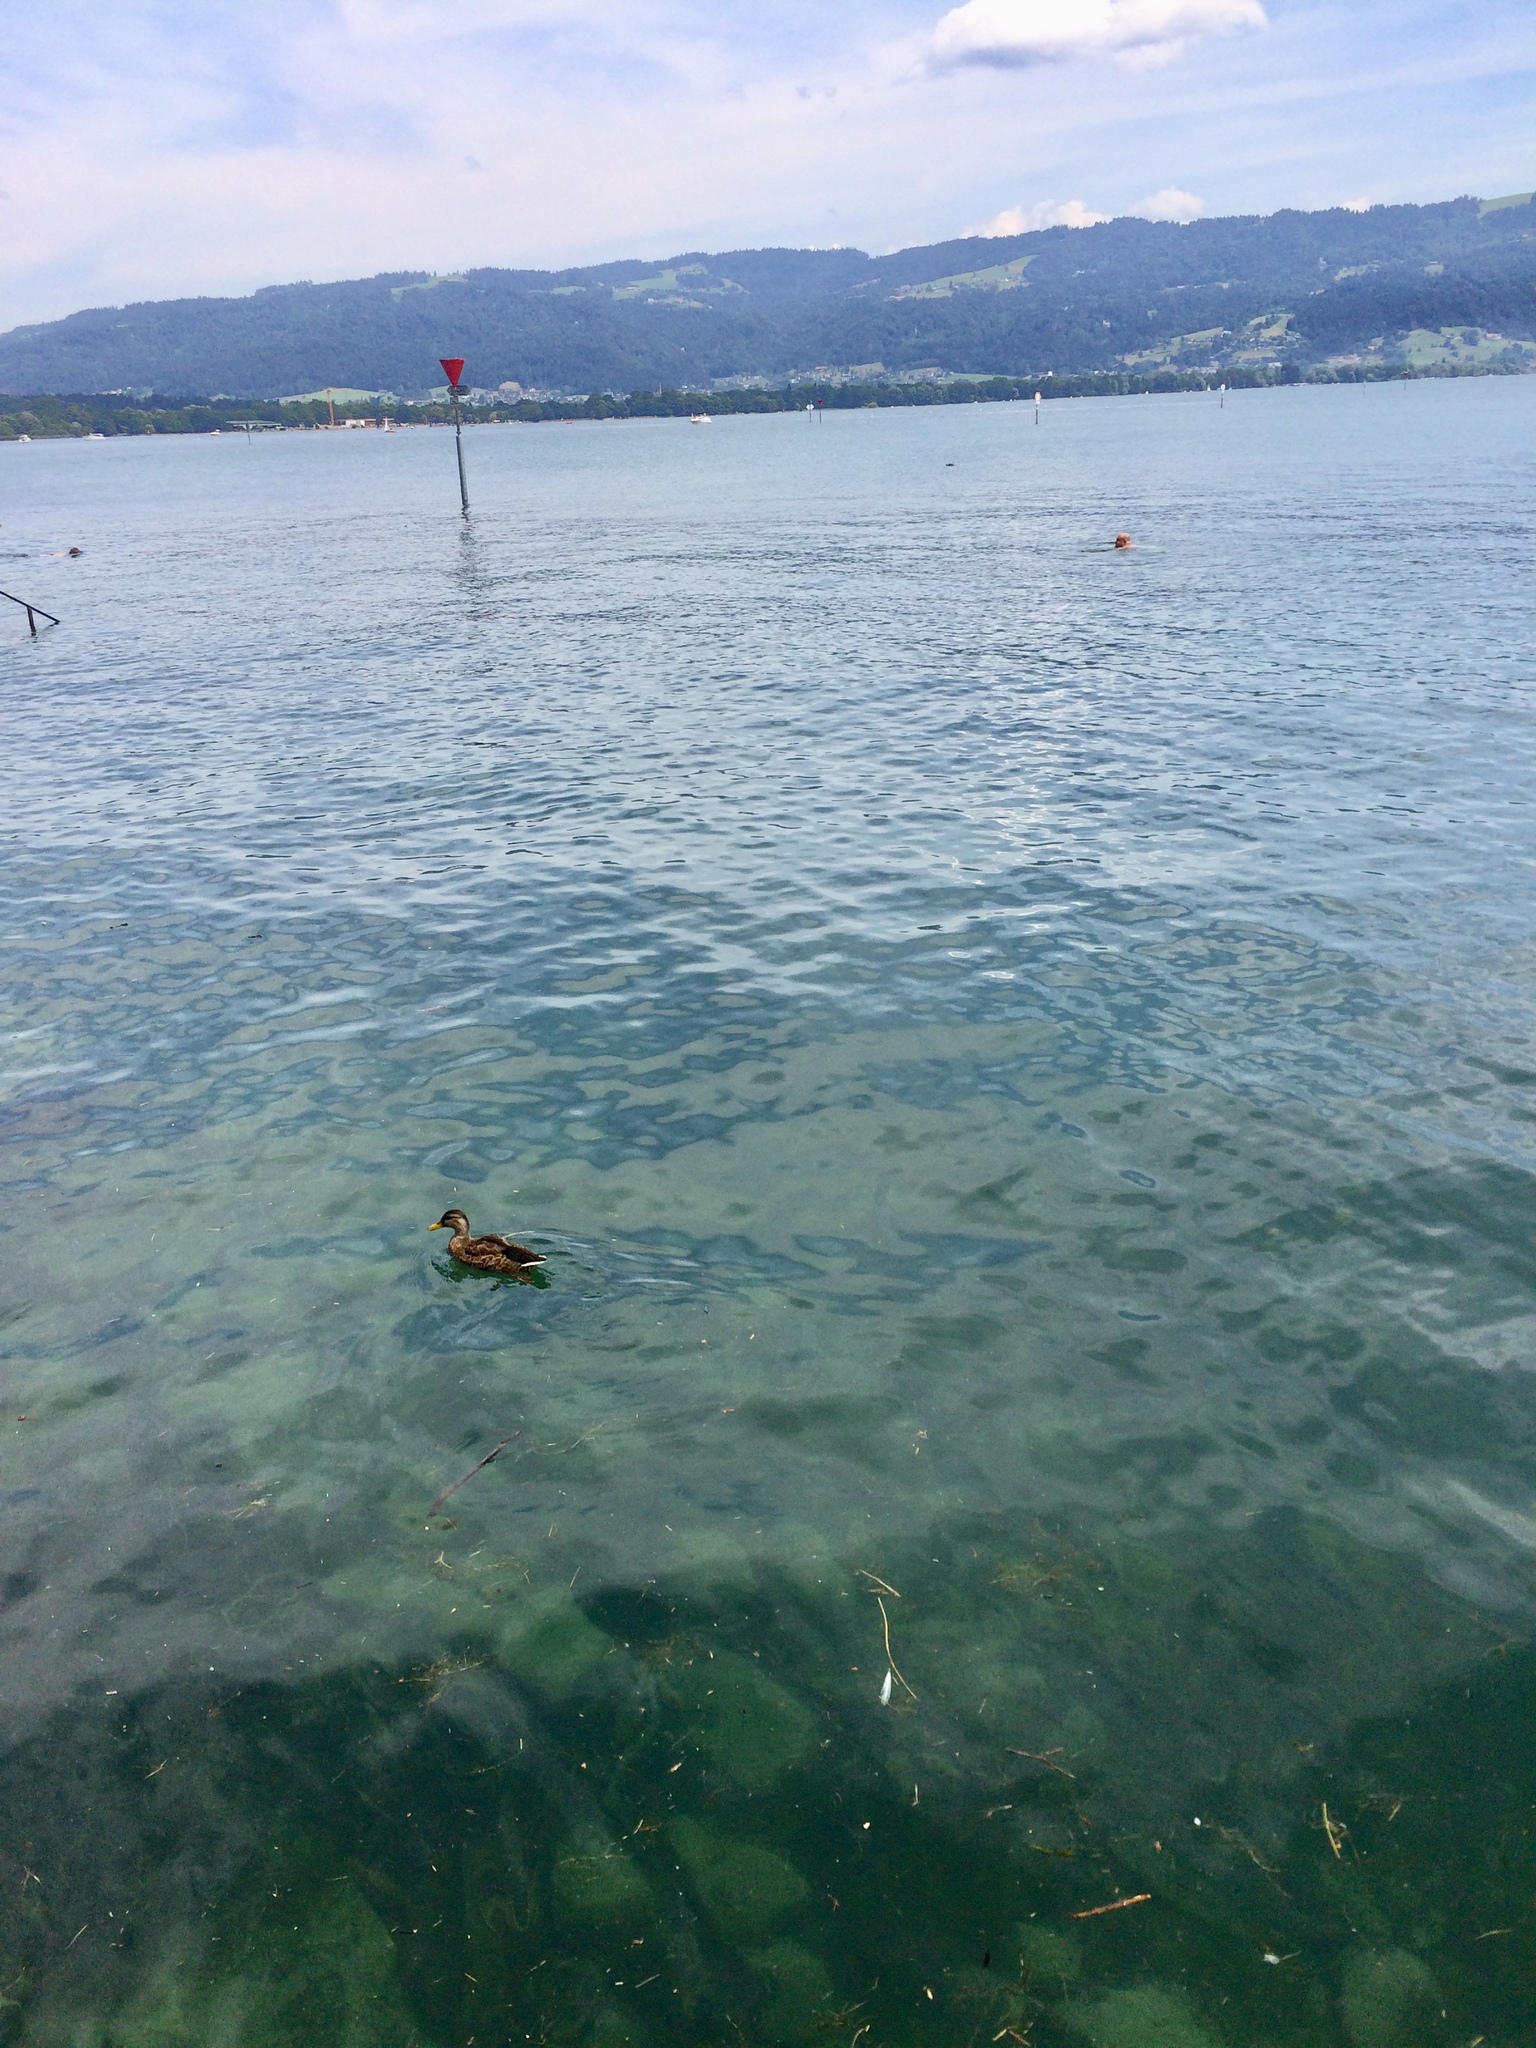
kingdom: Animalia
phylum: Chordata
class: Aves
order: Anseriformes
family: Anatidae
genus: Anas
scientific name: Anas platyrhynchos
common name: Mallard
